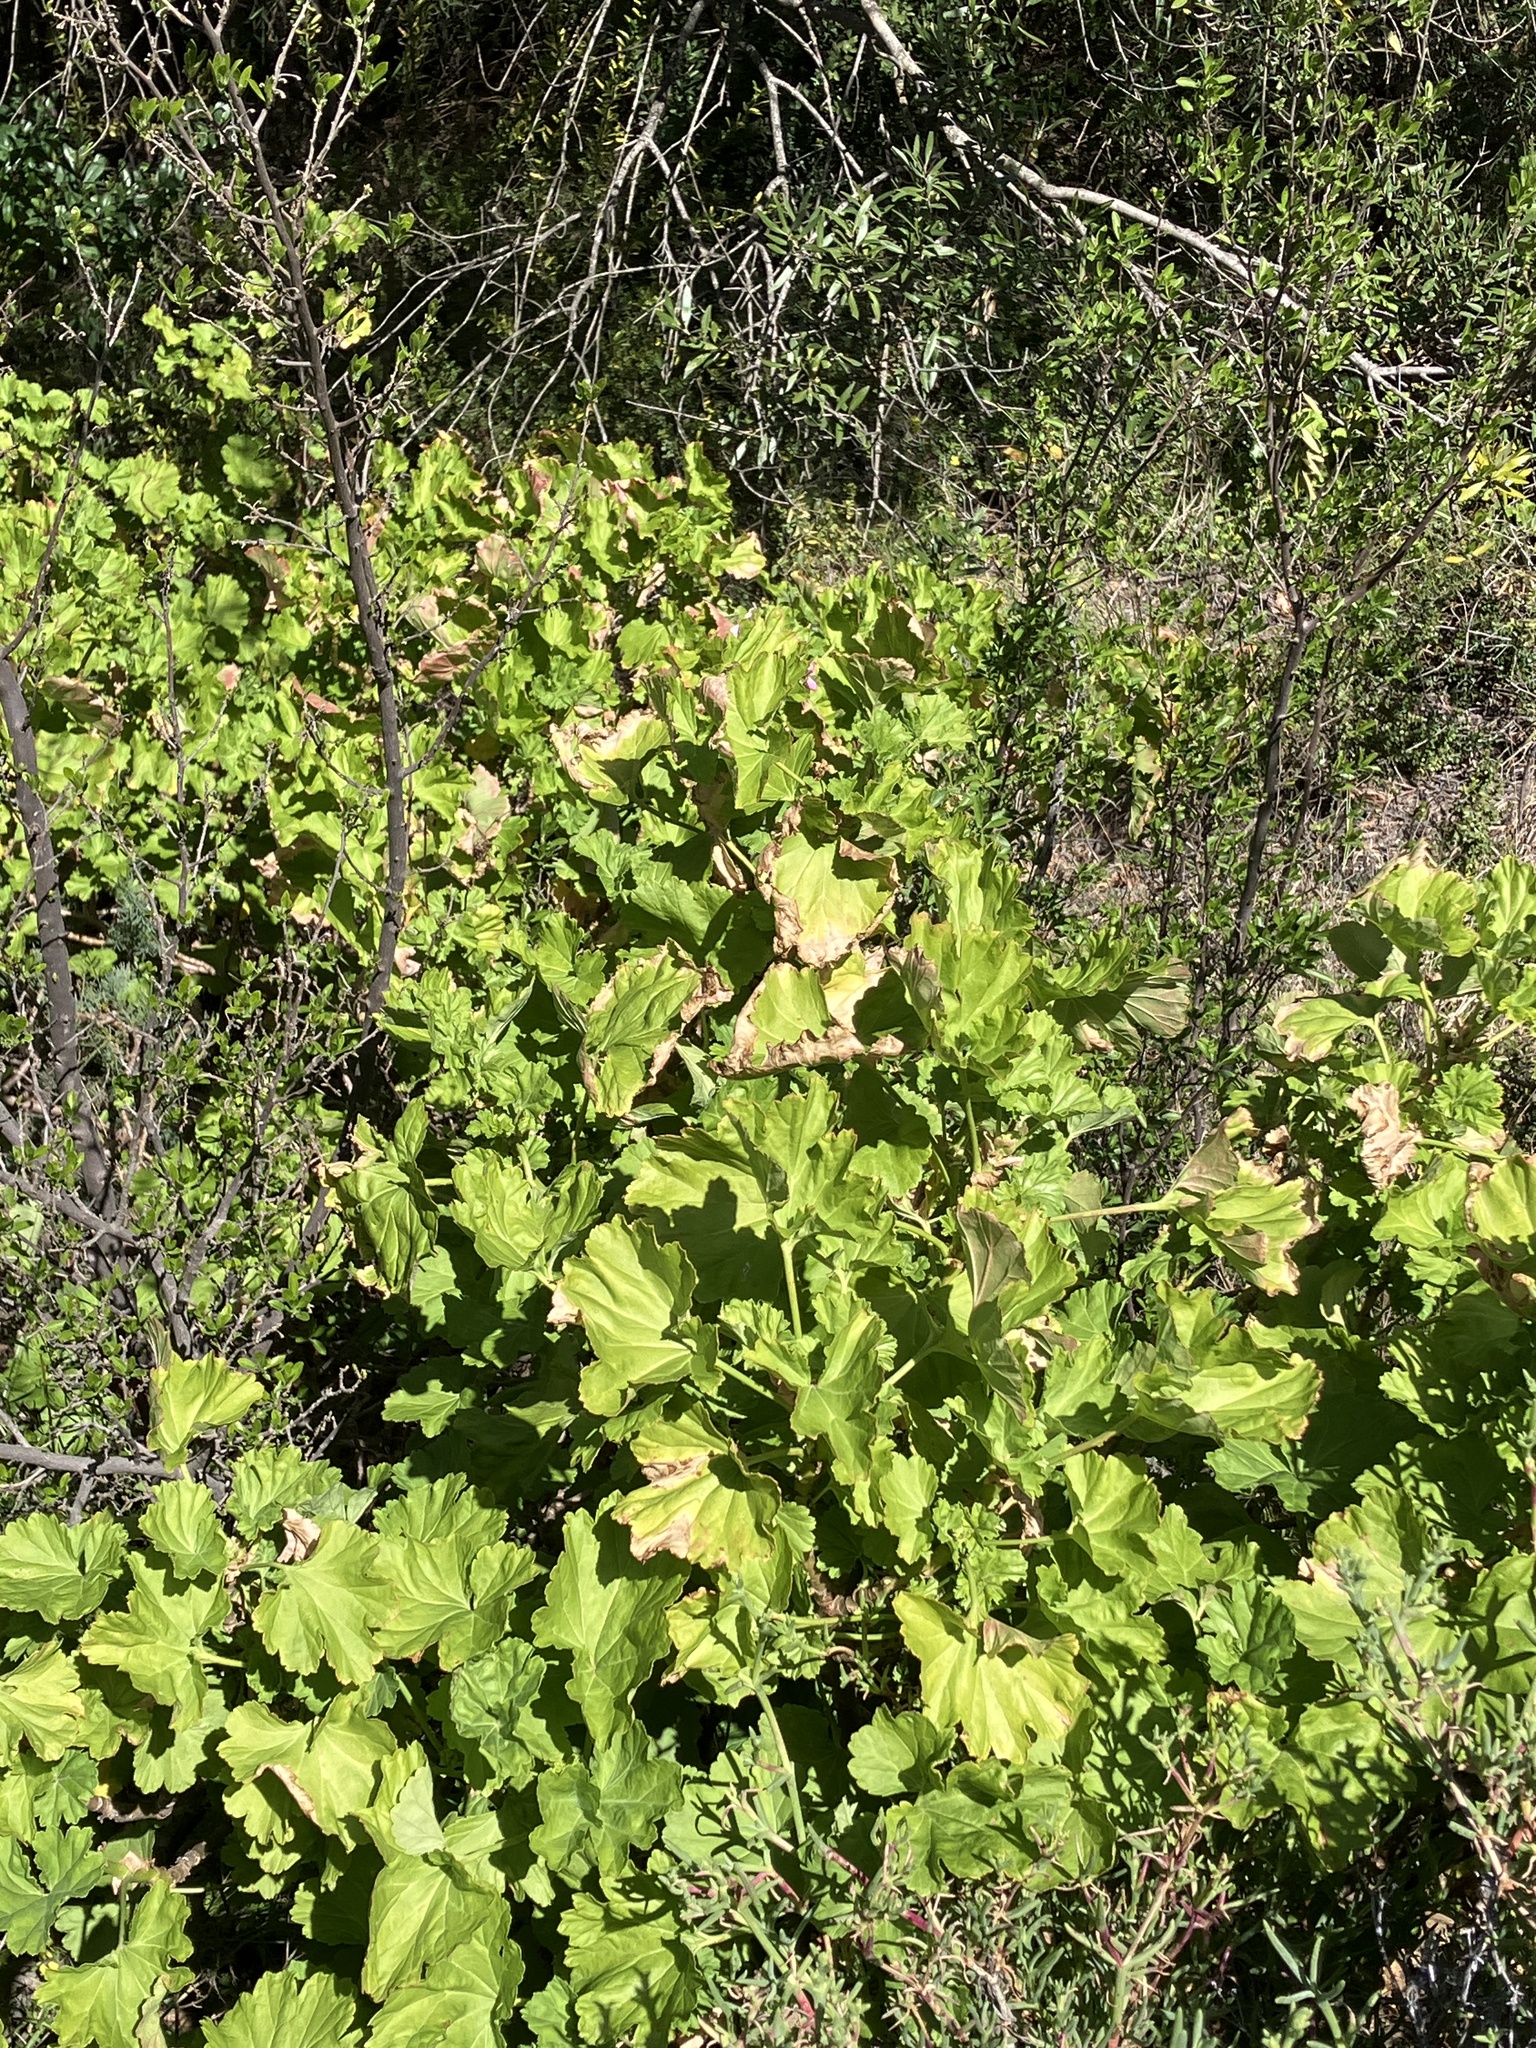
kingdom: Plantae
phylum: Tracheophyta
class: Magnoliopsida
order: Geraniales
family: Geraniaceae
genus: Pelargonium
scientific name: Pelargonium zonale
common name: Horseshoe geranium
